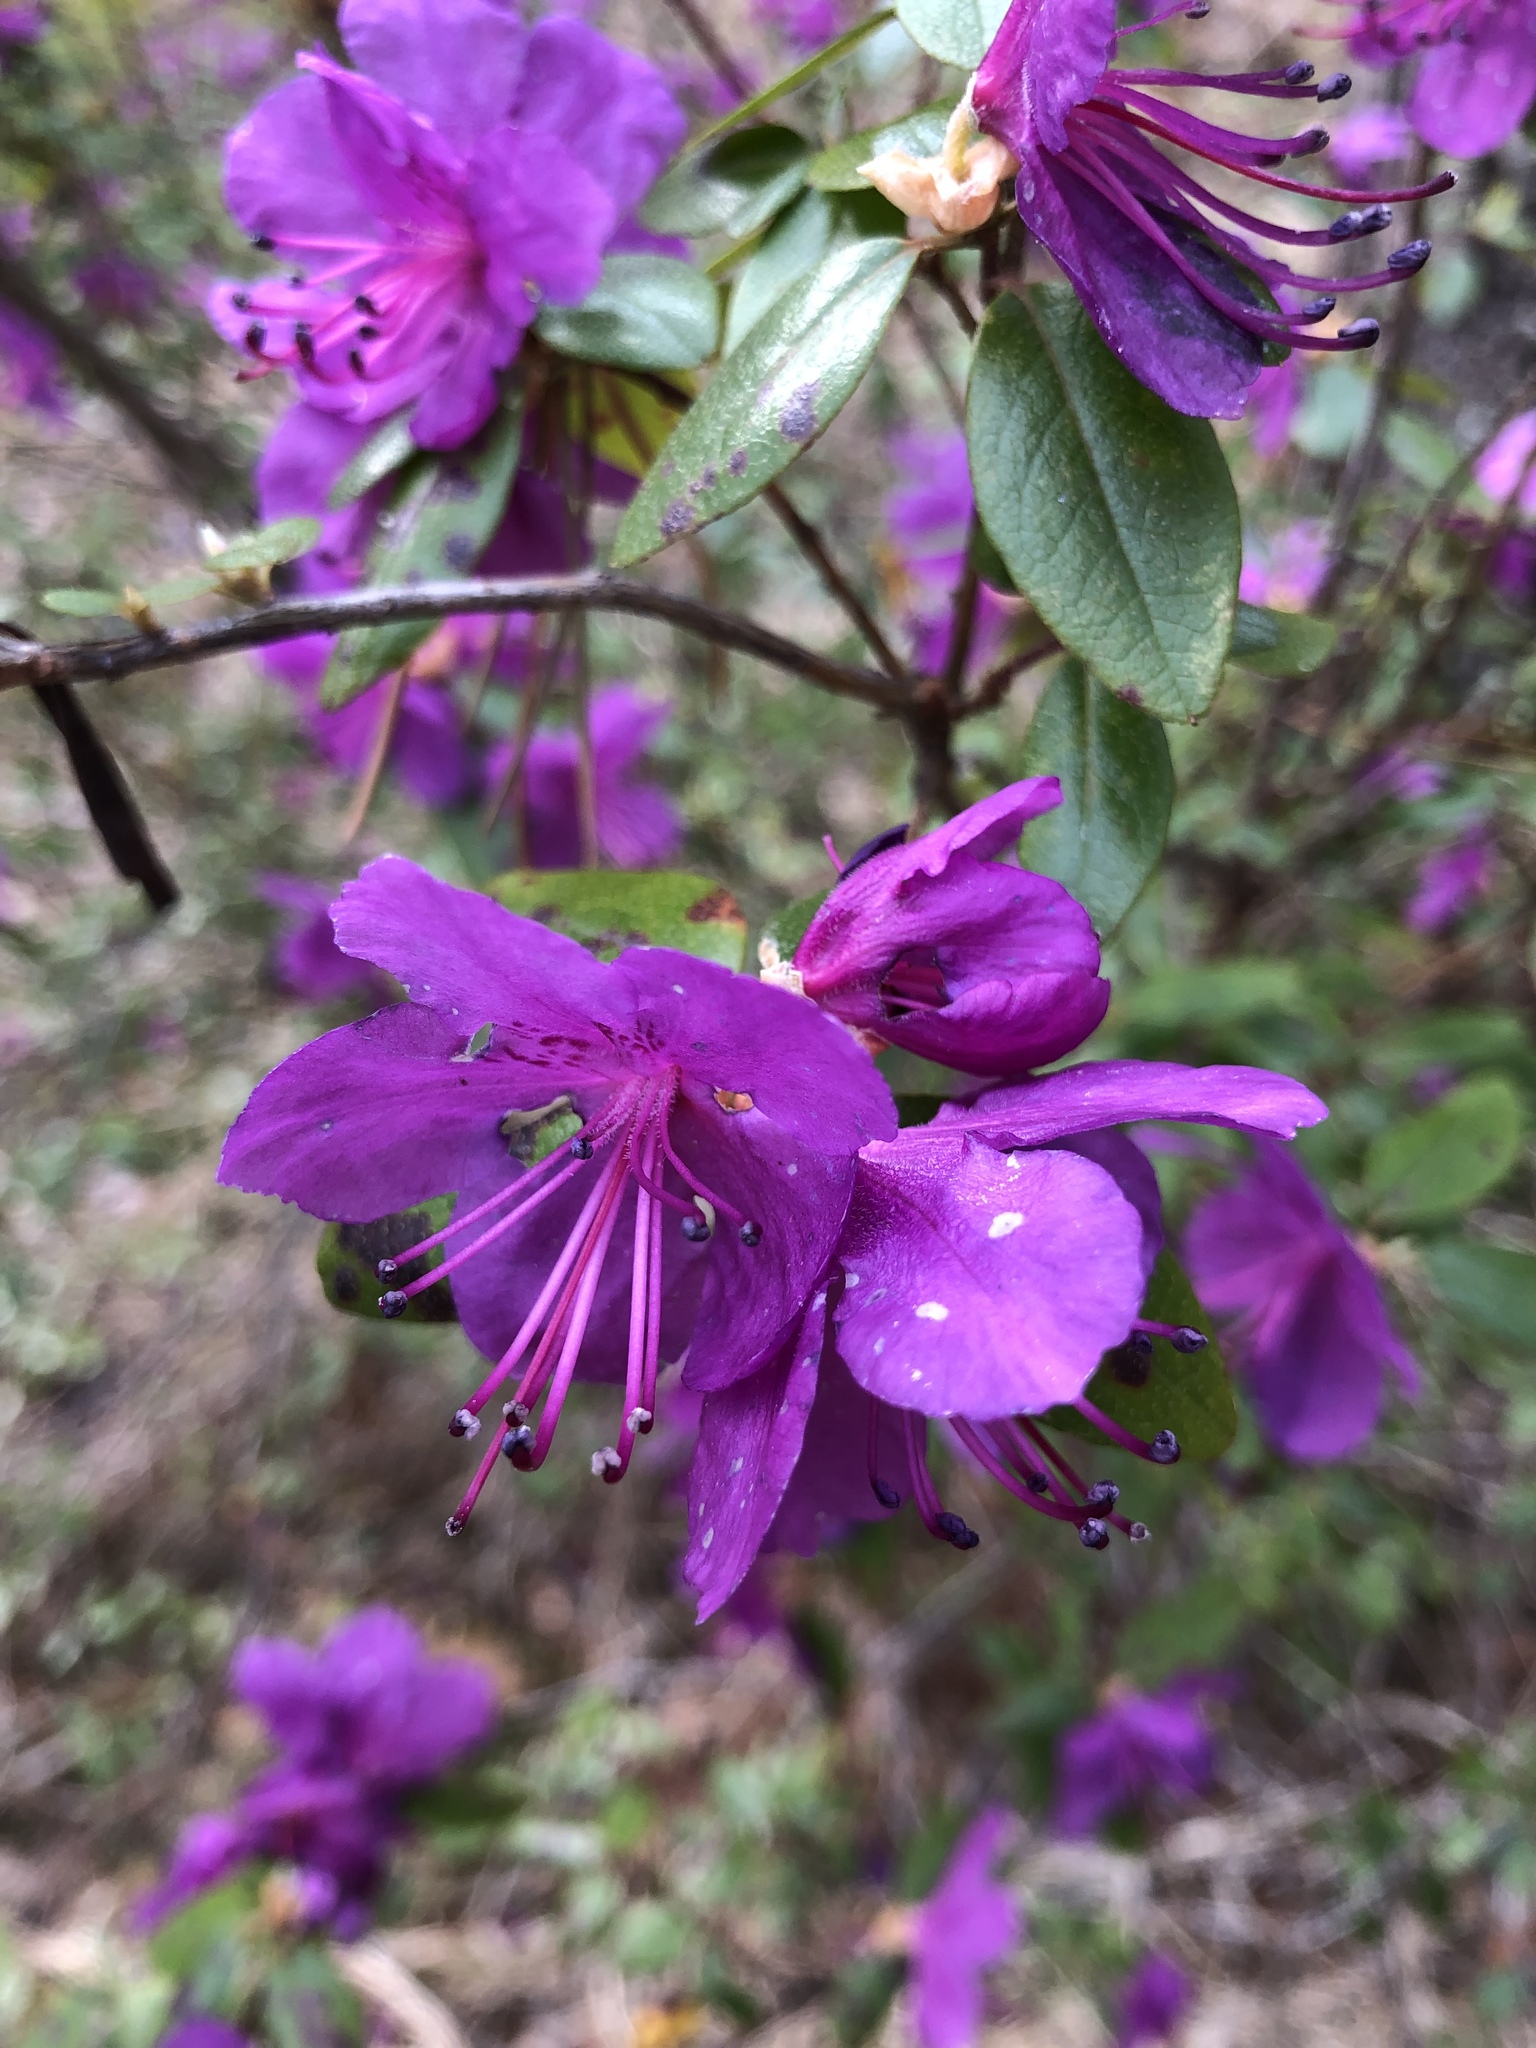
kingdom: Plantae
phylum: Tracheophyta
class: Magnoliopsida
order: Ericales
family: Ericaceae
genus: Rhododendron
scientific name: Rhododendron dauricum
